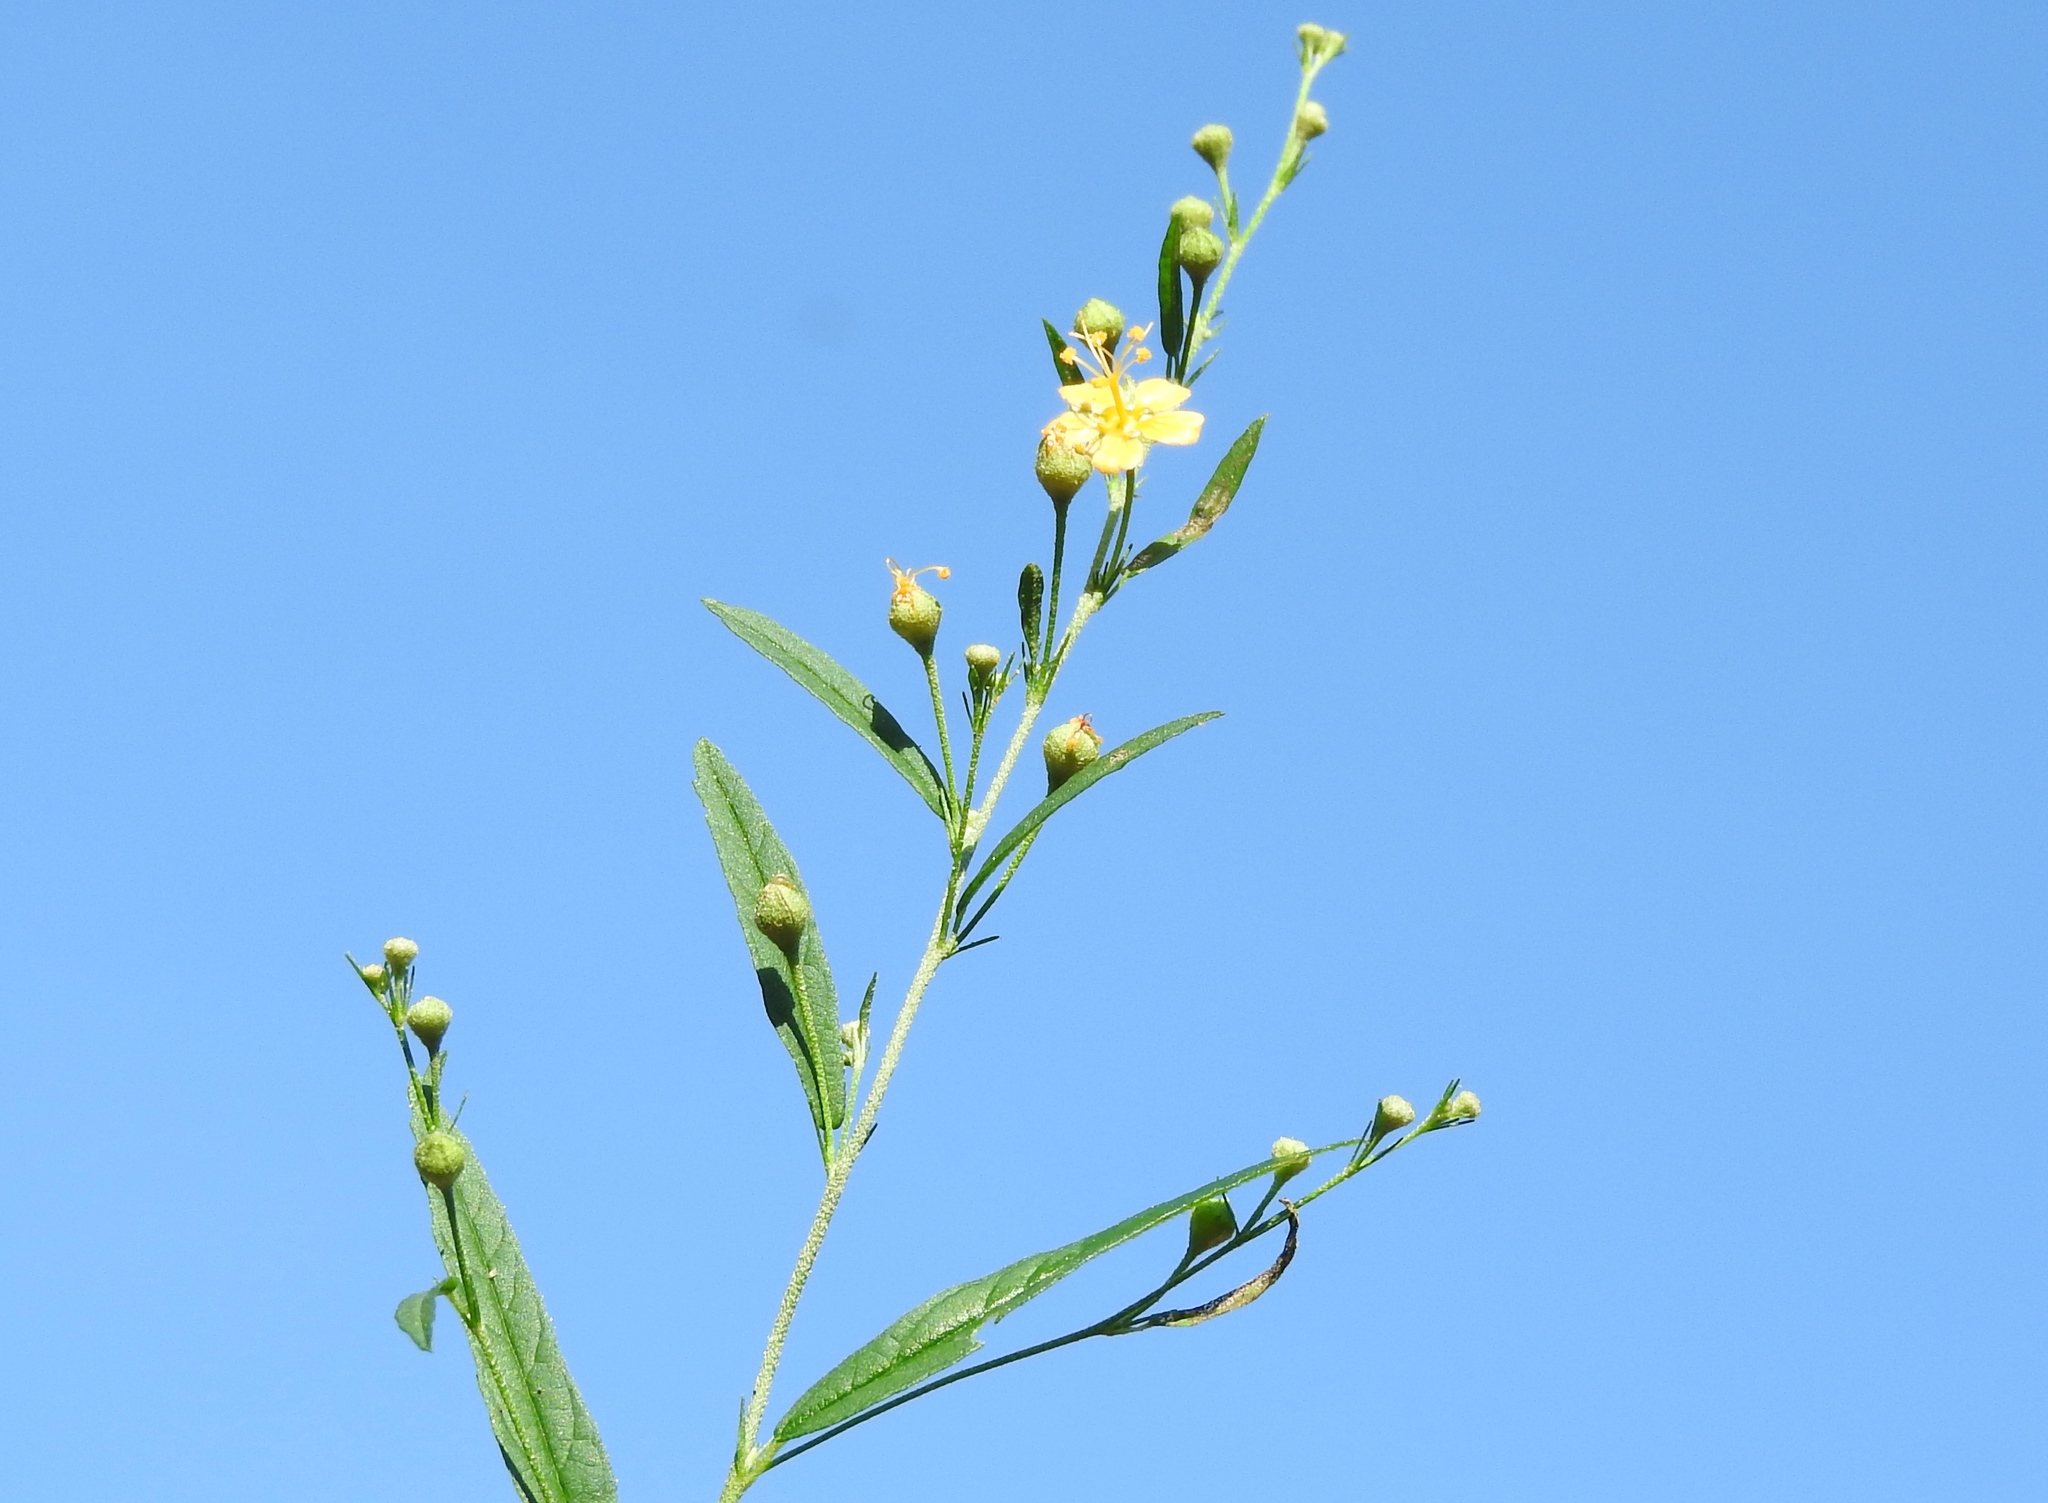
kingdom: Plantae
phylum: Tracheophyta
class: Magnoliopsida
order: Malvales
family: Malvaceae
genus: Sidastrum
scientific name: Sidastrum lodiegense
